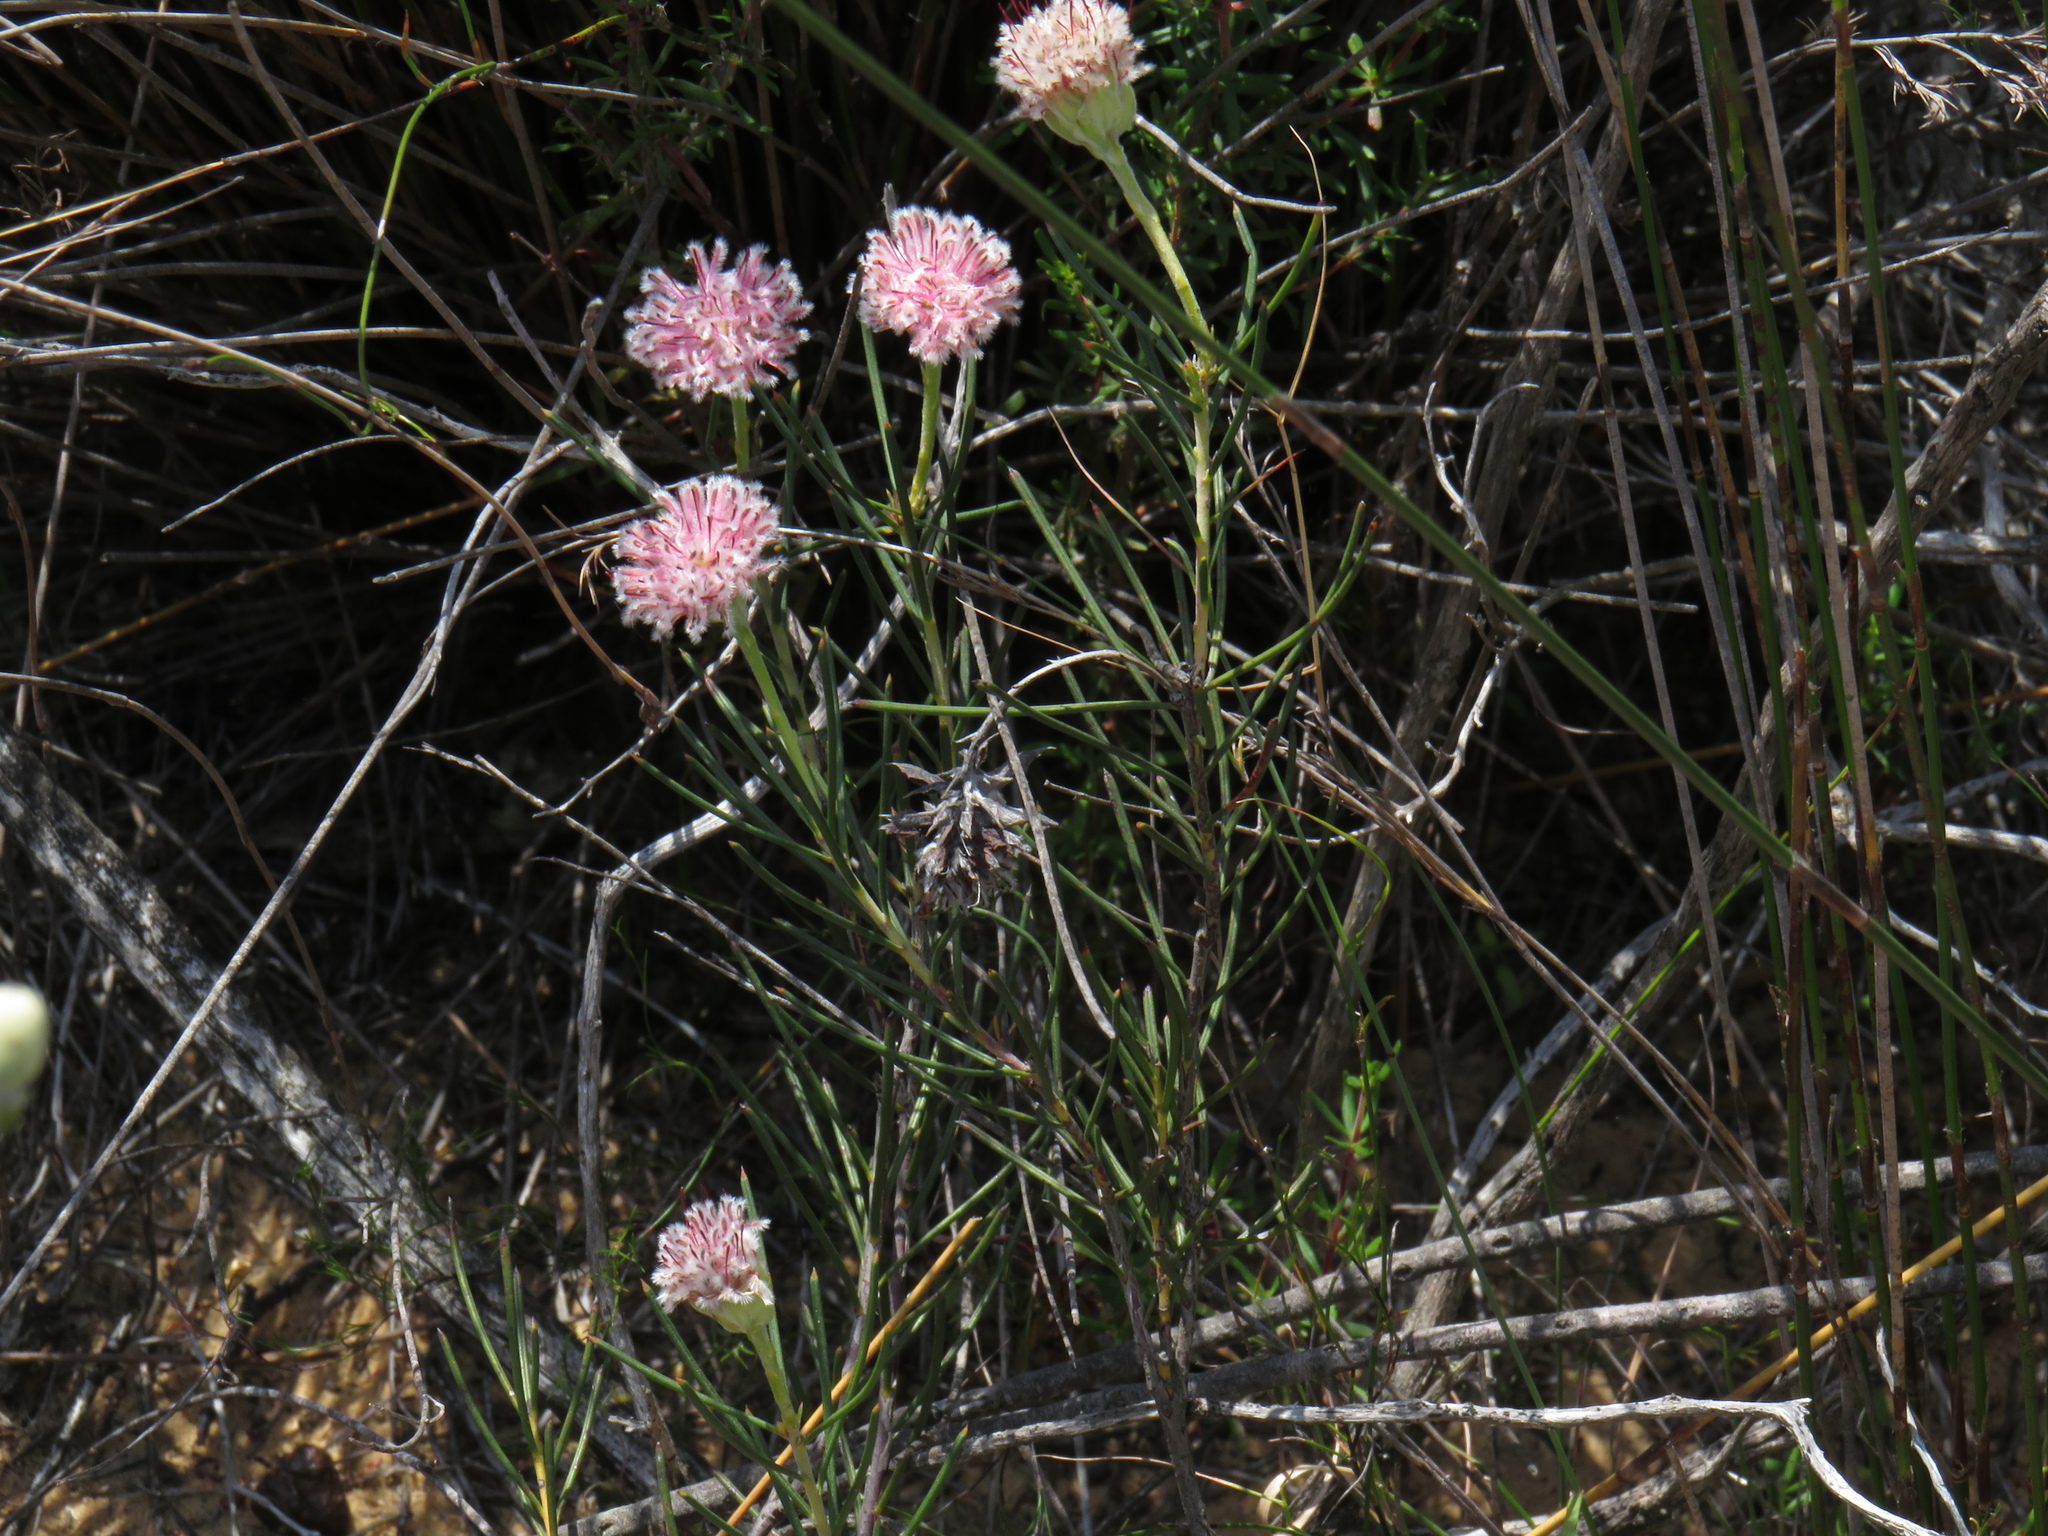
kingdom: Plantae
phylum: Tracheophyta
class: Magnoliopsida
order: Proteales
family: Proteaceae
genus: Serruria
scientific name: Serruria linearis
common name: Needle-leaf spiderhead
